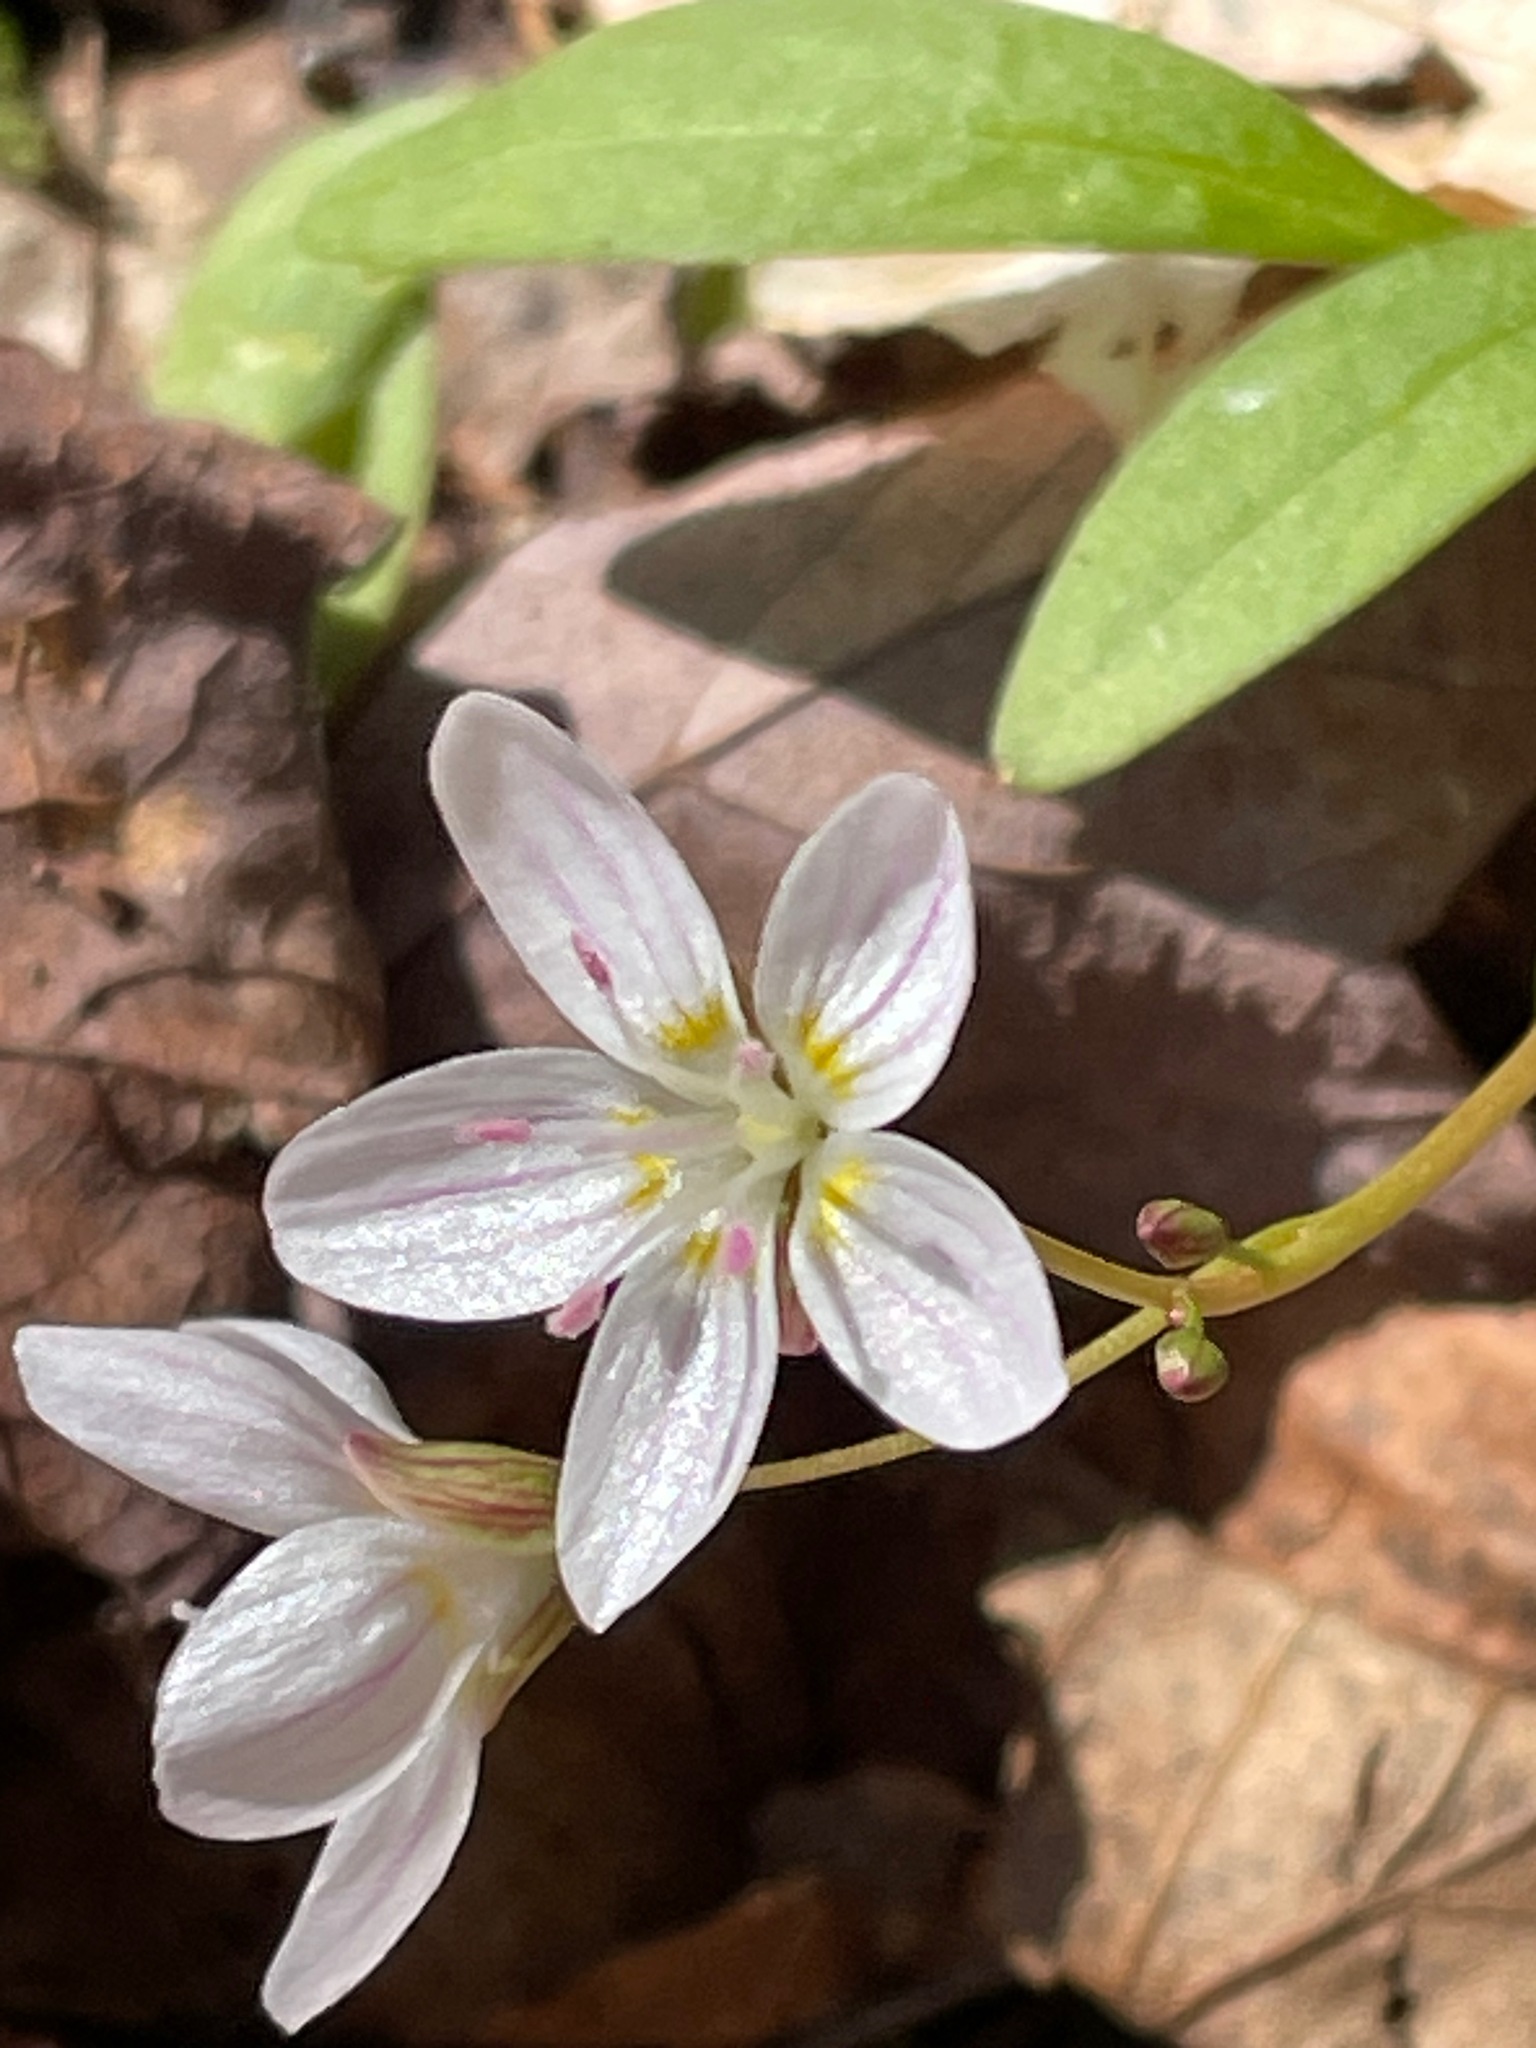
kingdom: Plantae
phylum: Tracheophyta
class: Magnoliopsida
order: Caryophyllales
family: Montiaceae
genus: Claytonia
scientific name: Claytonia caroliniana
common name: Carolina spring beauty
